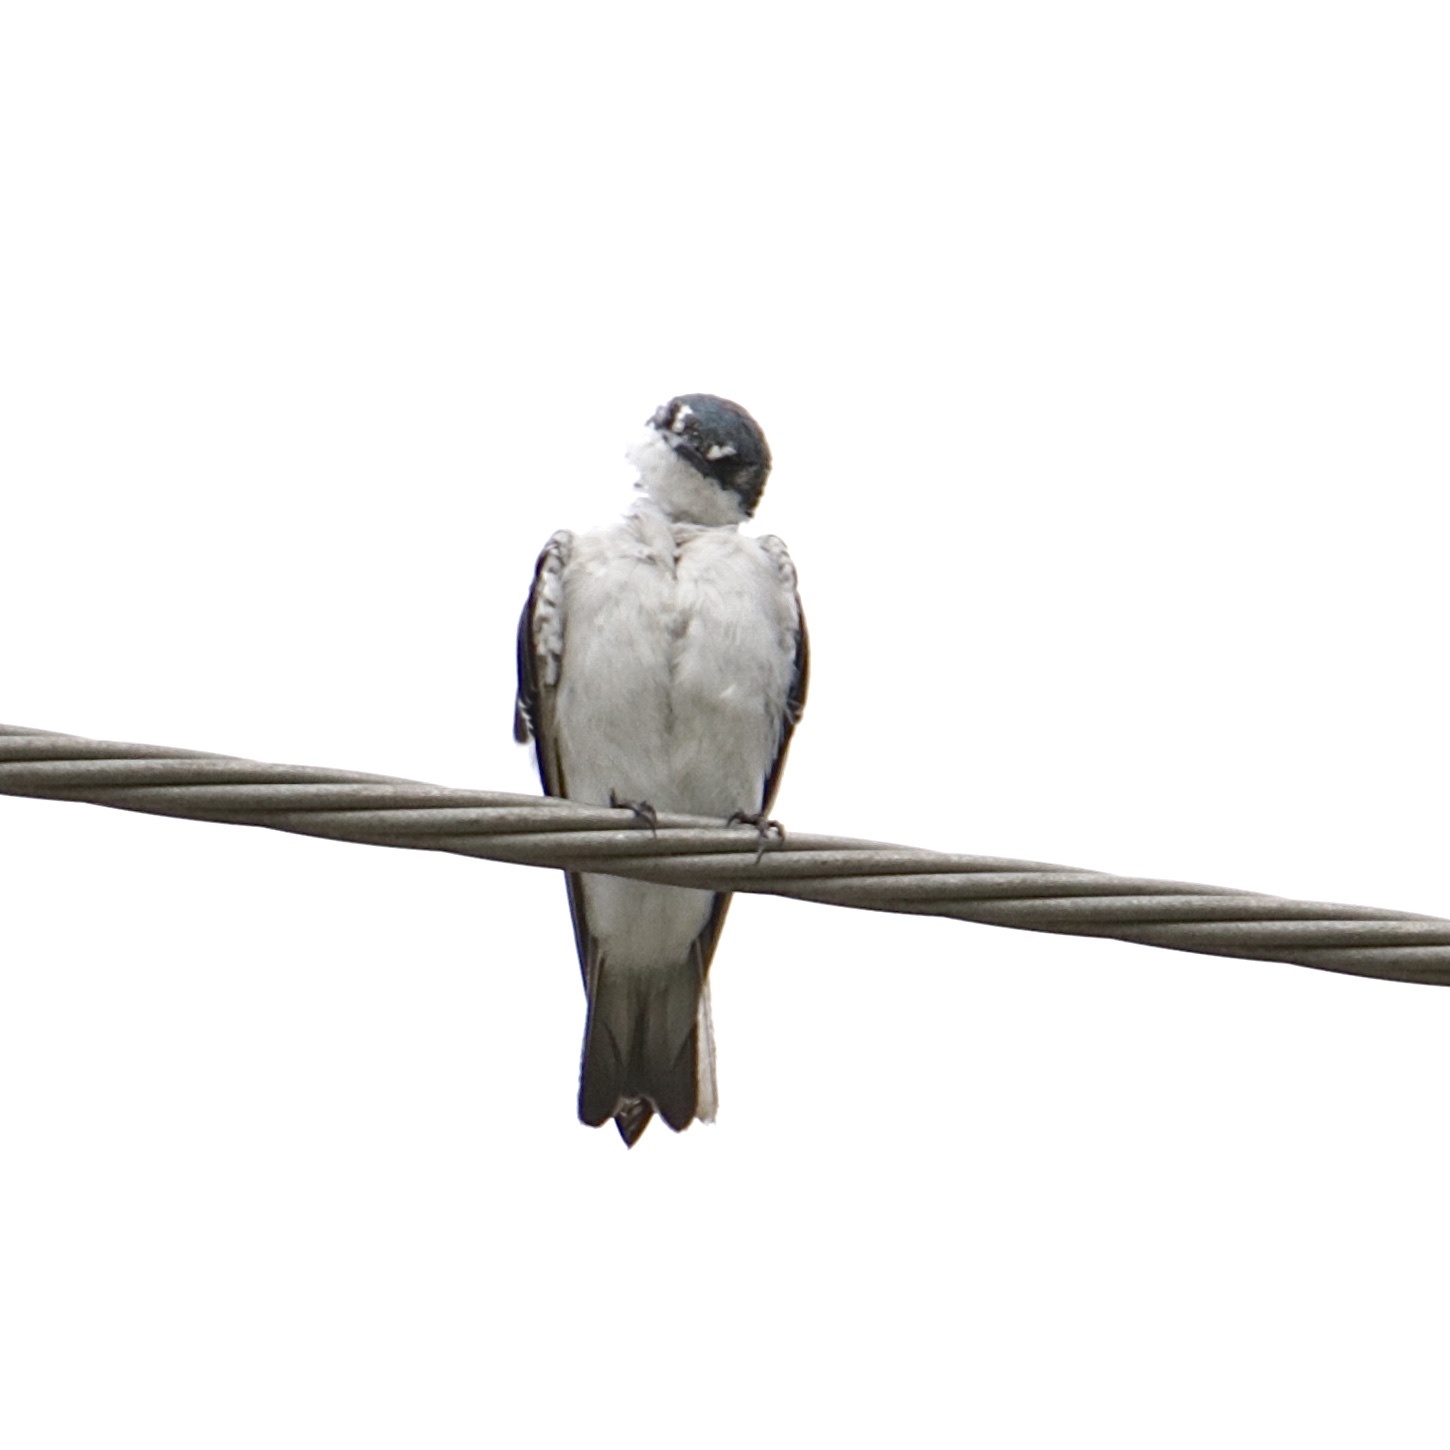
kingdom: Animalia
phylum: Chordata
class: Aves
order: Passeriformes
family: Hirundinidae
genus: Tachycineta
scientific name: Tachycineta albilinea
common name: Mangrove swallow
